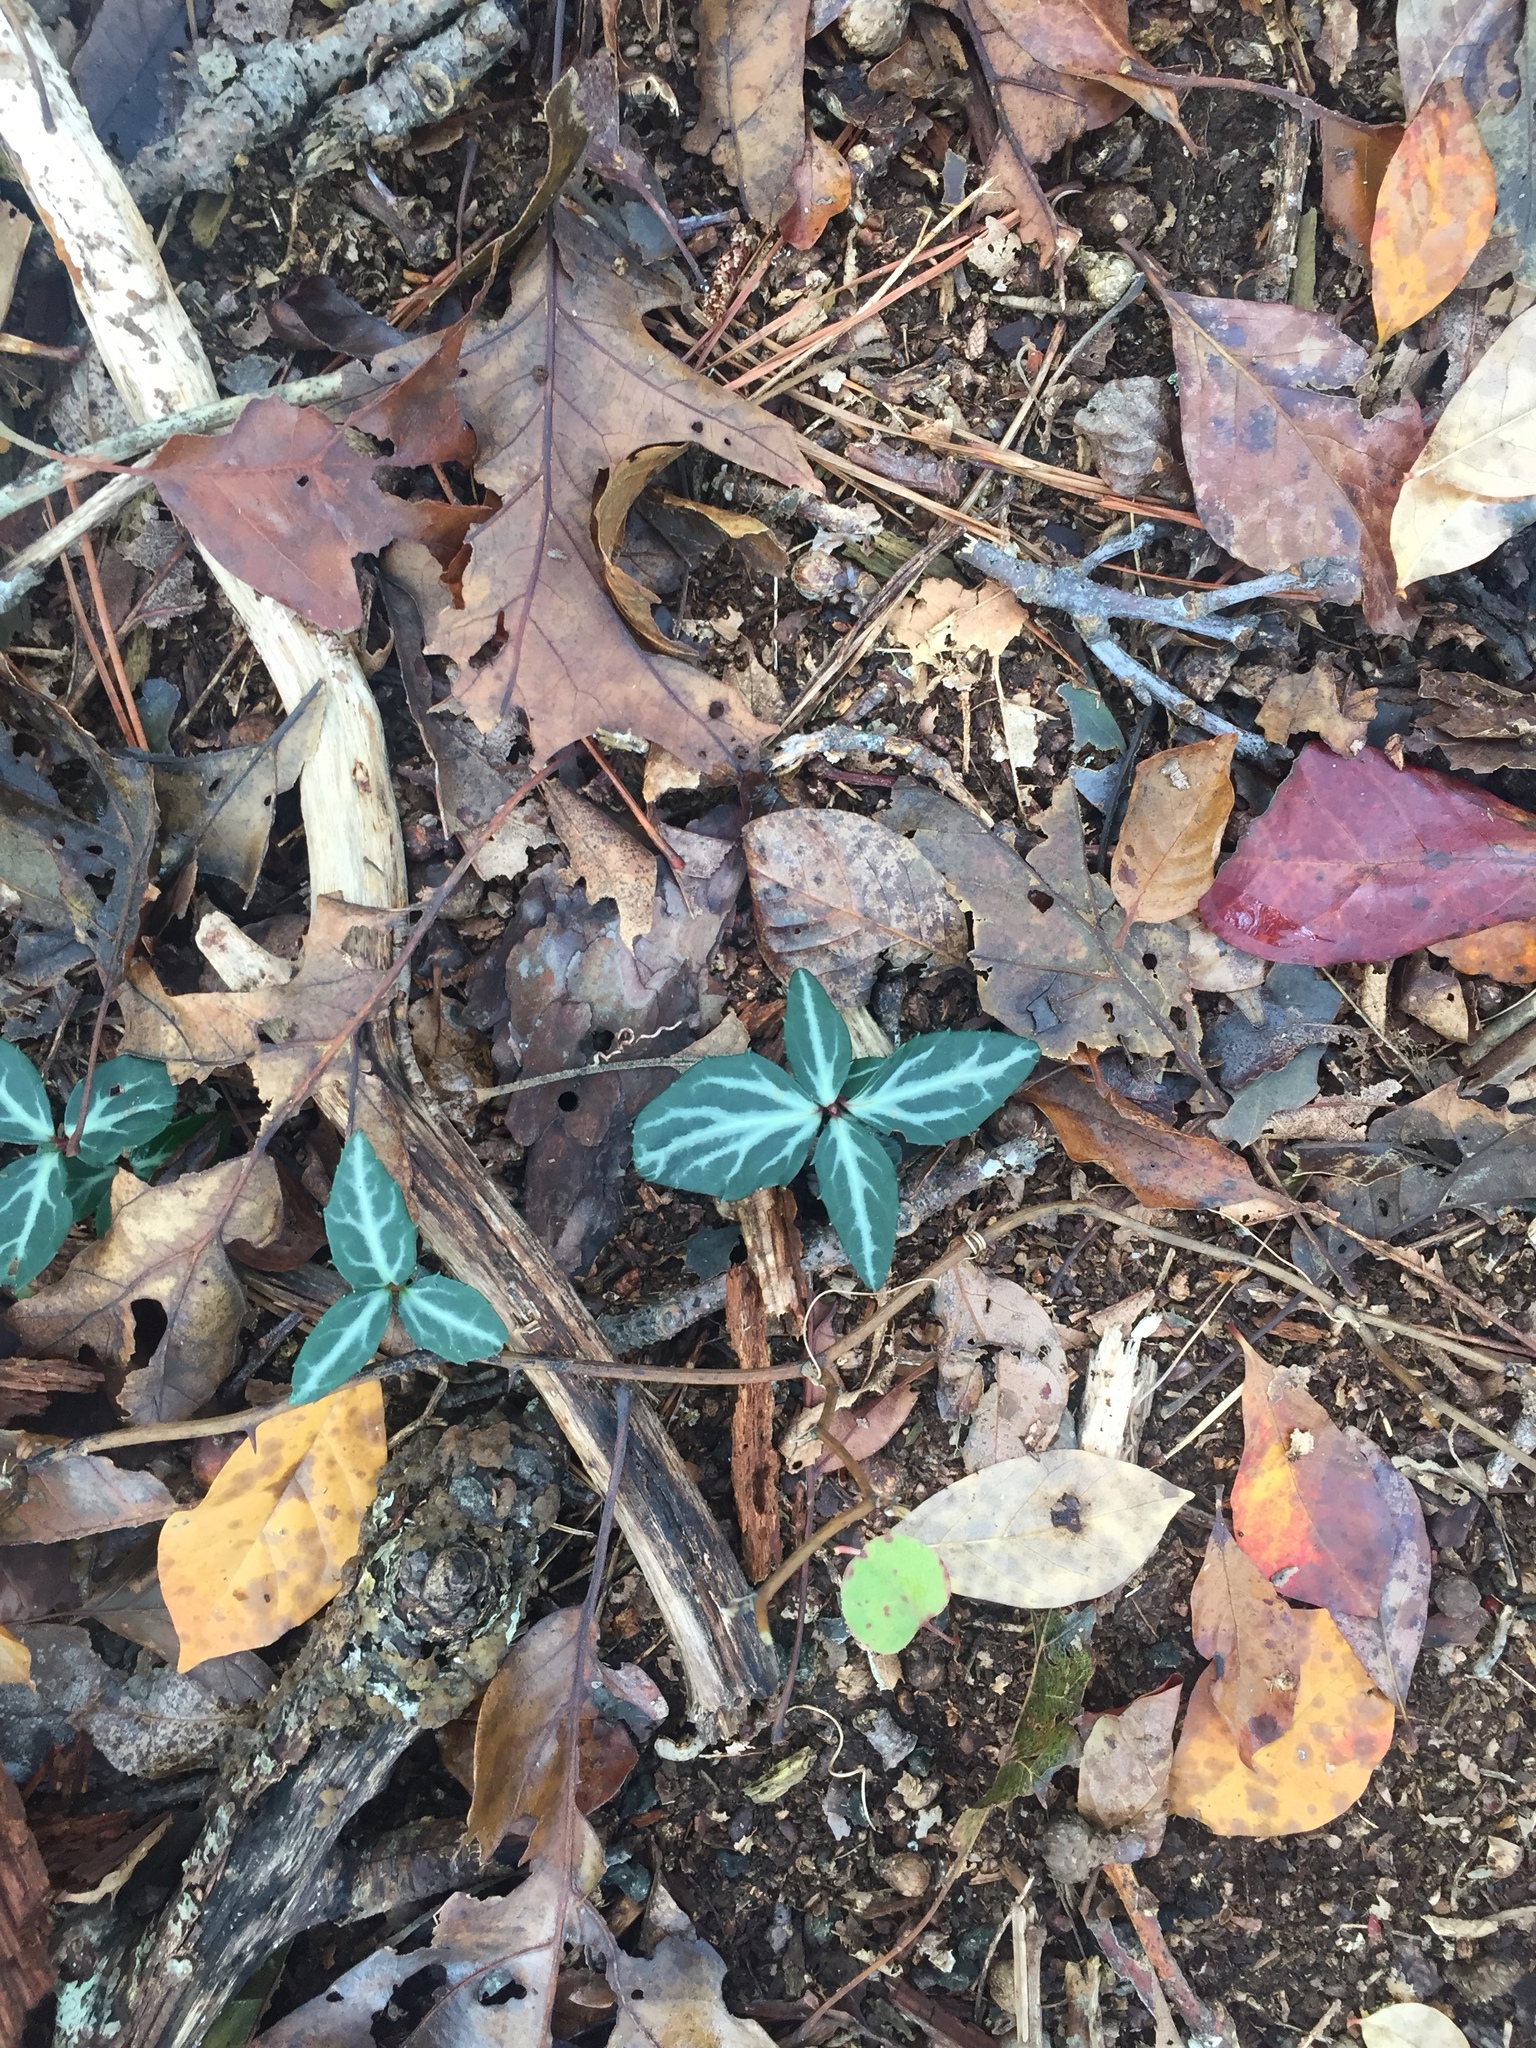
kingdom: Plantae
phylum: Tracheophyta
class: Magnoliopsida
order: Ericales
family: Ericaceae
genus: Chimaphila
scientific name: Chimaphila maculata
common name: Spotted pipsissewa
